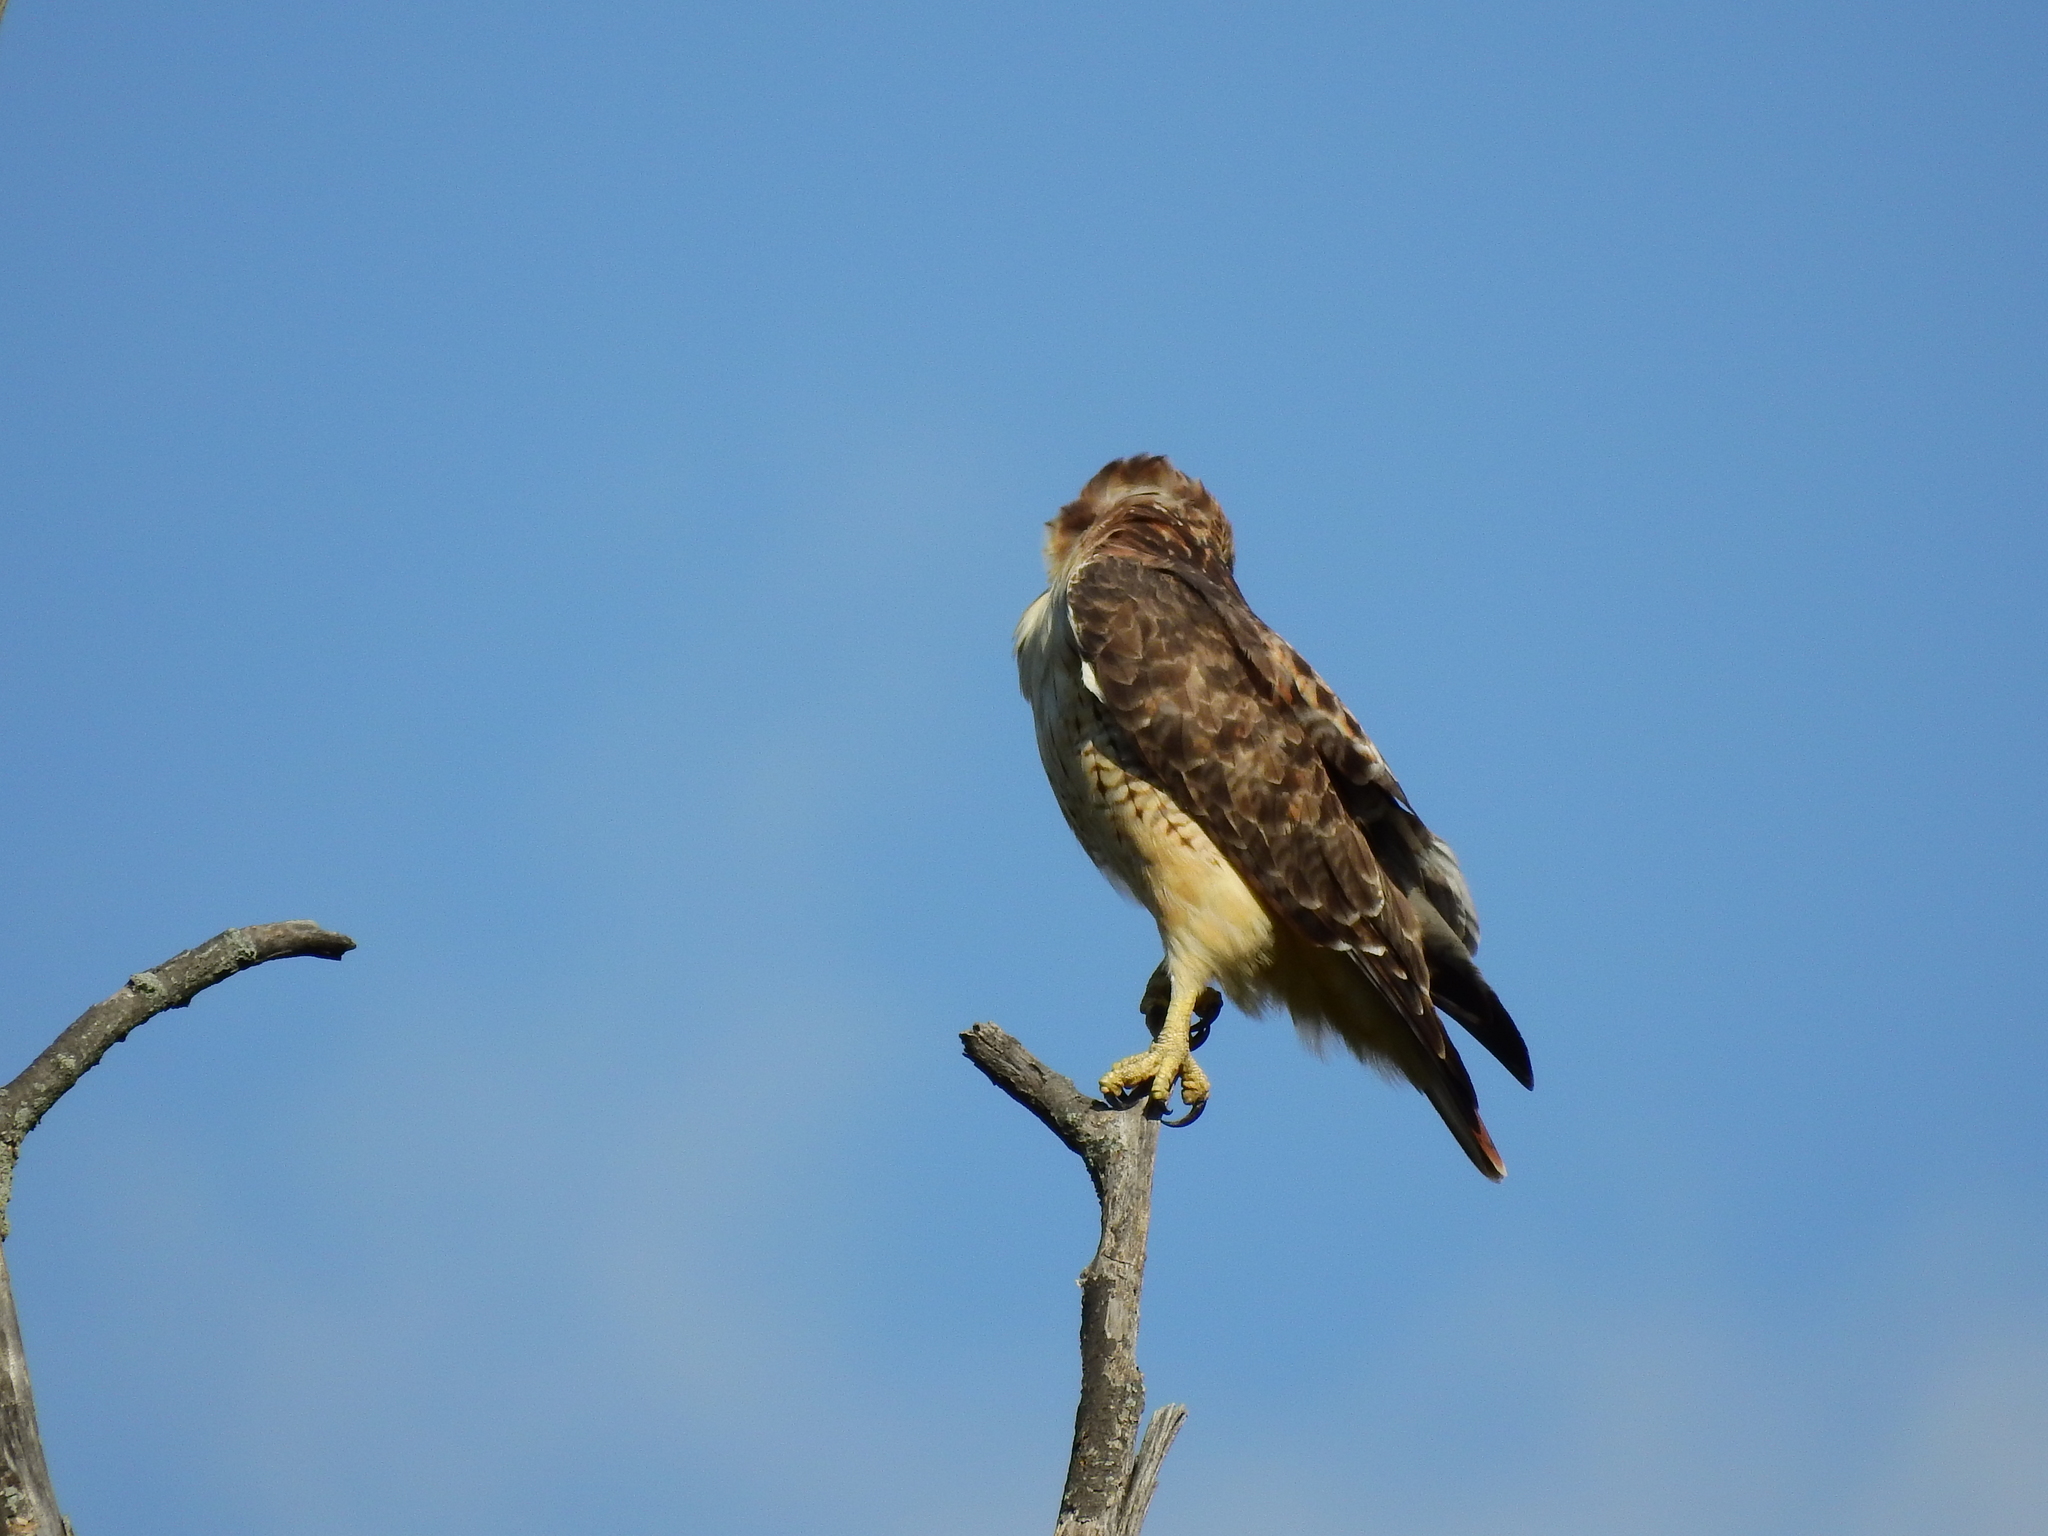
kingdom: Animalia
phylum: Chordata
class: Aves
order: Accipitriformes
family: Accipitridae
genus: Buteo
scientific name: Buteo jamaicensis
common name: Red-tailed hawk
